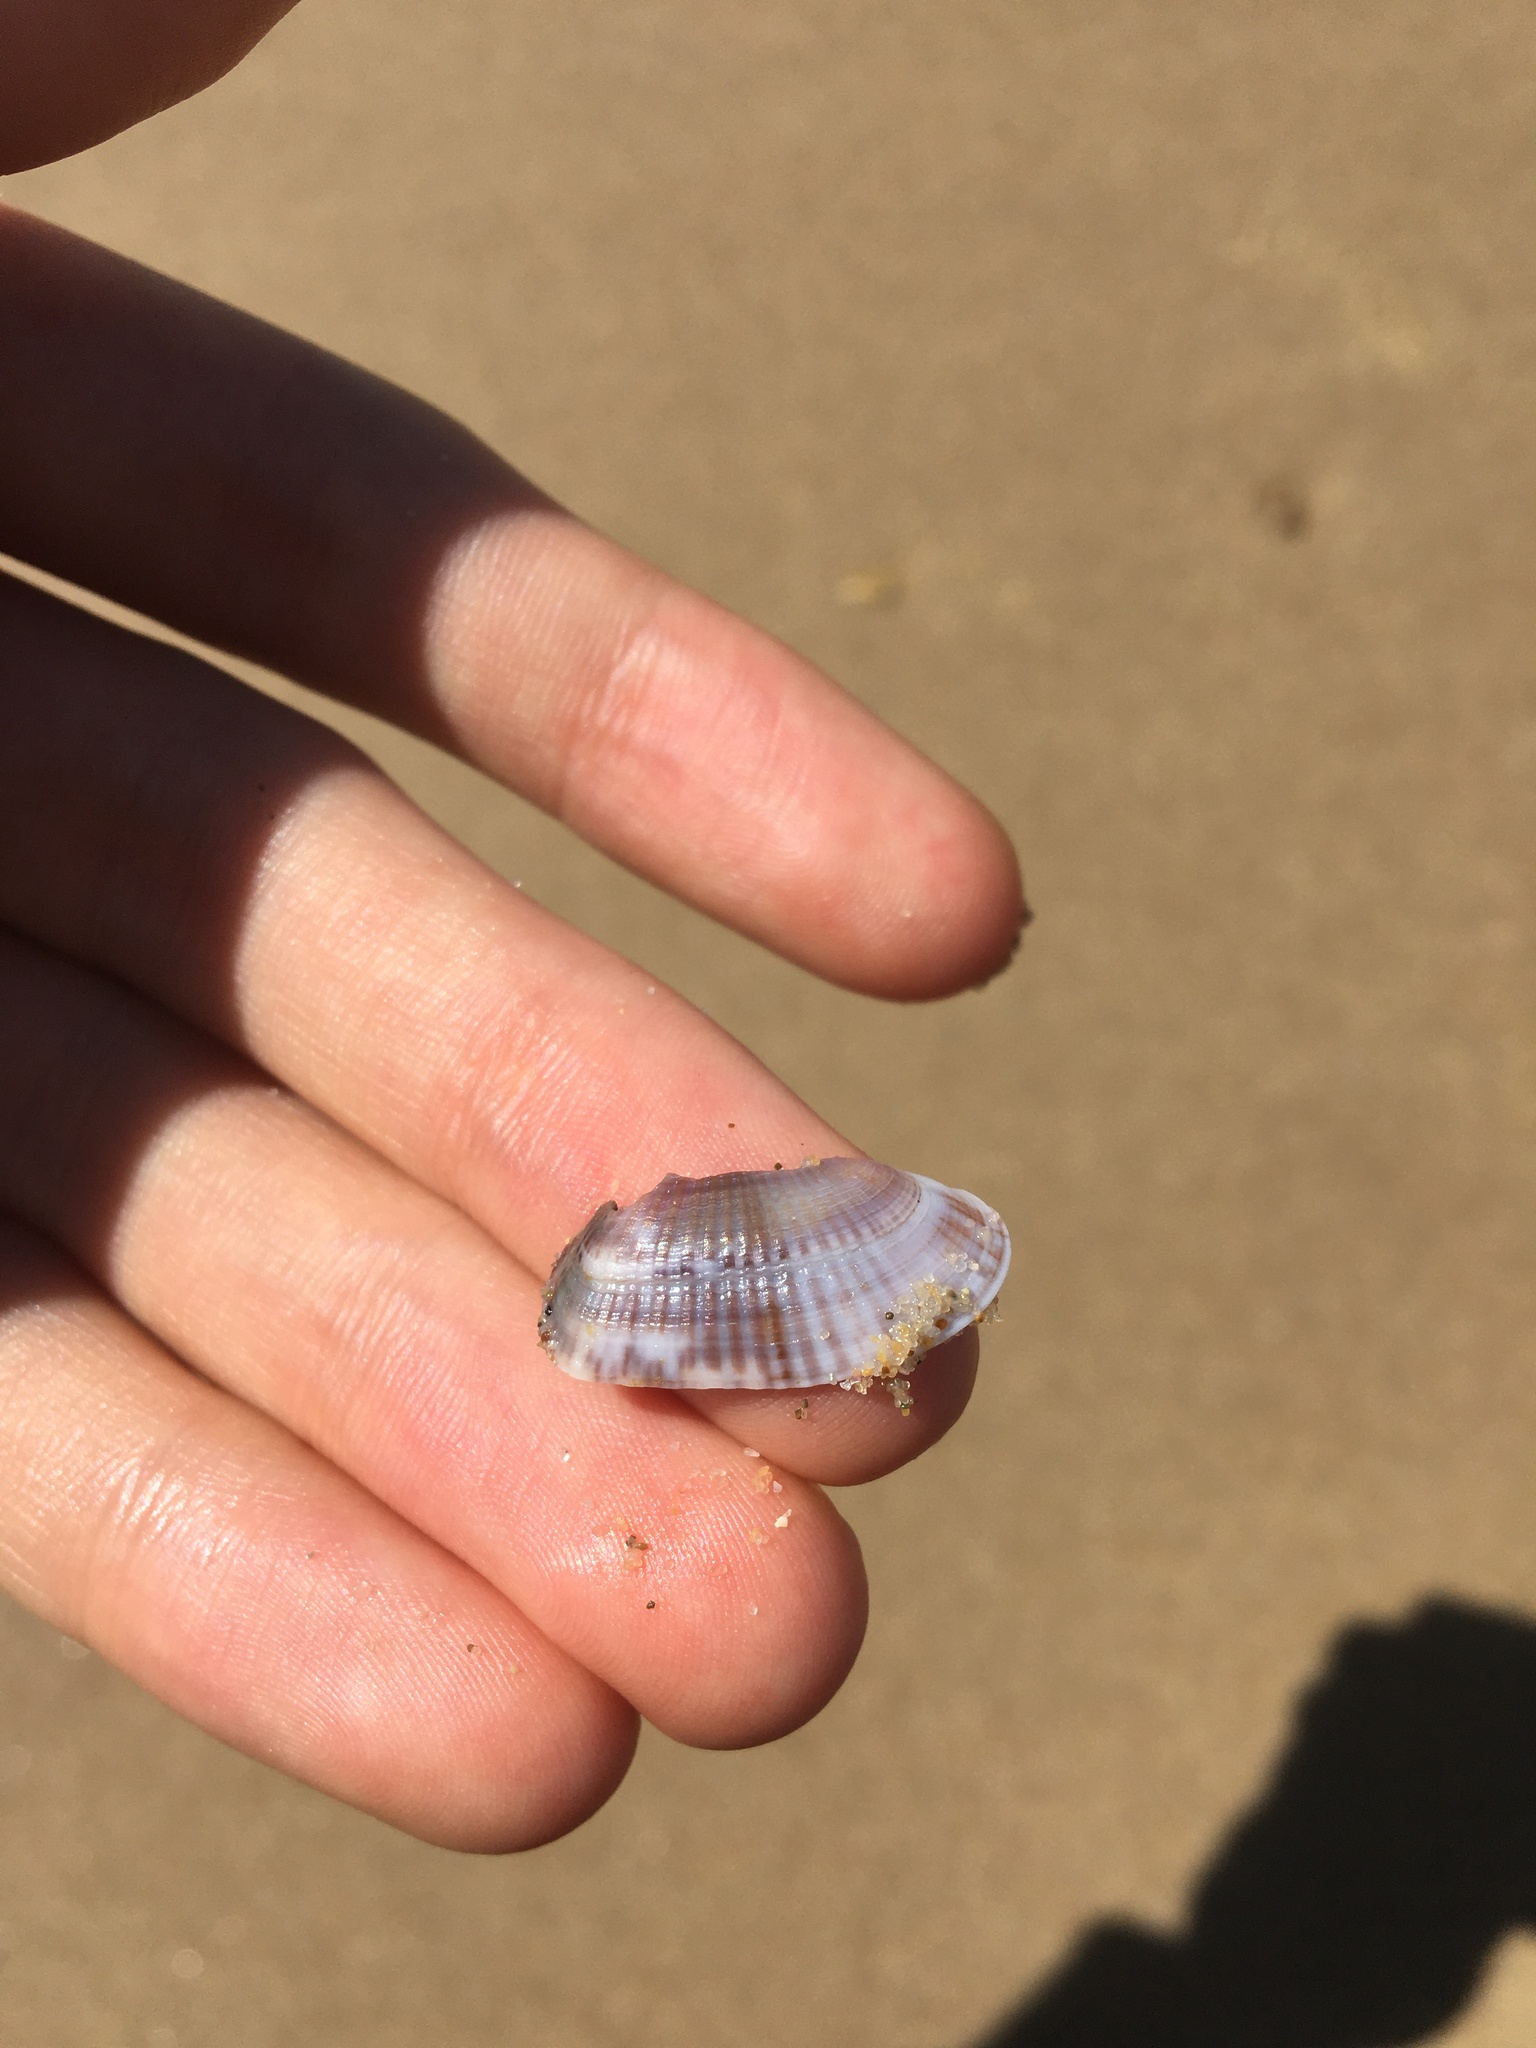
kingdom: Animalia
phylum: Mollusca
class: Bivalvia
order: Venerida
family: Hemidonacidae
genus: Hemidonax
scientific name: Hemidonax dactylus
